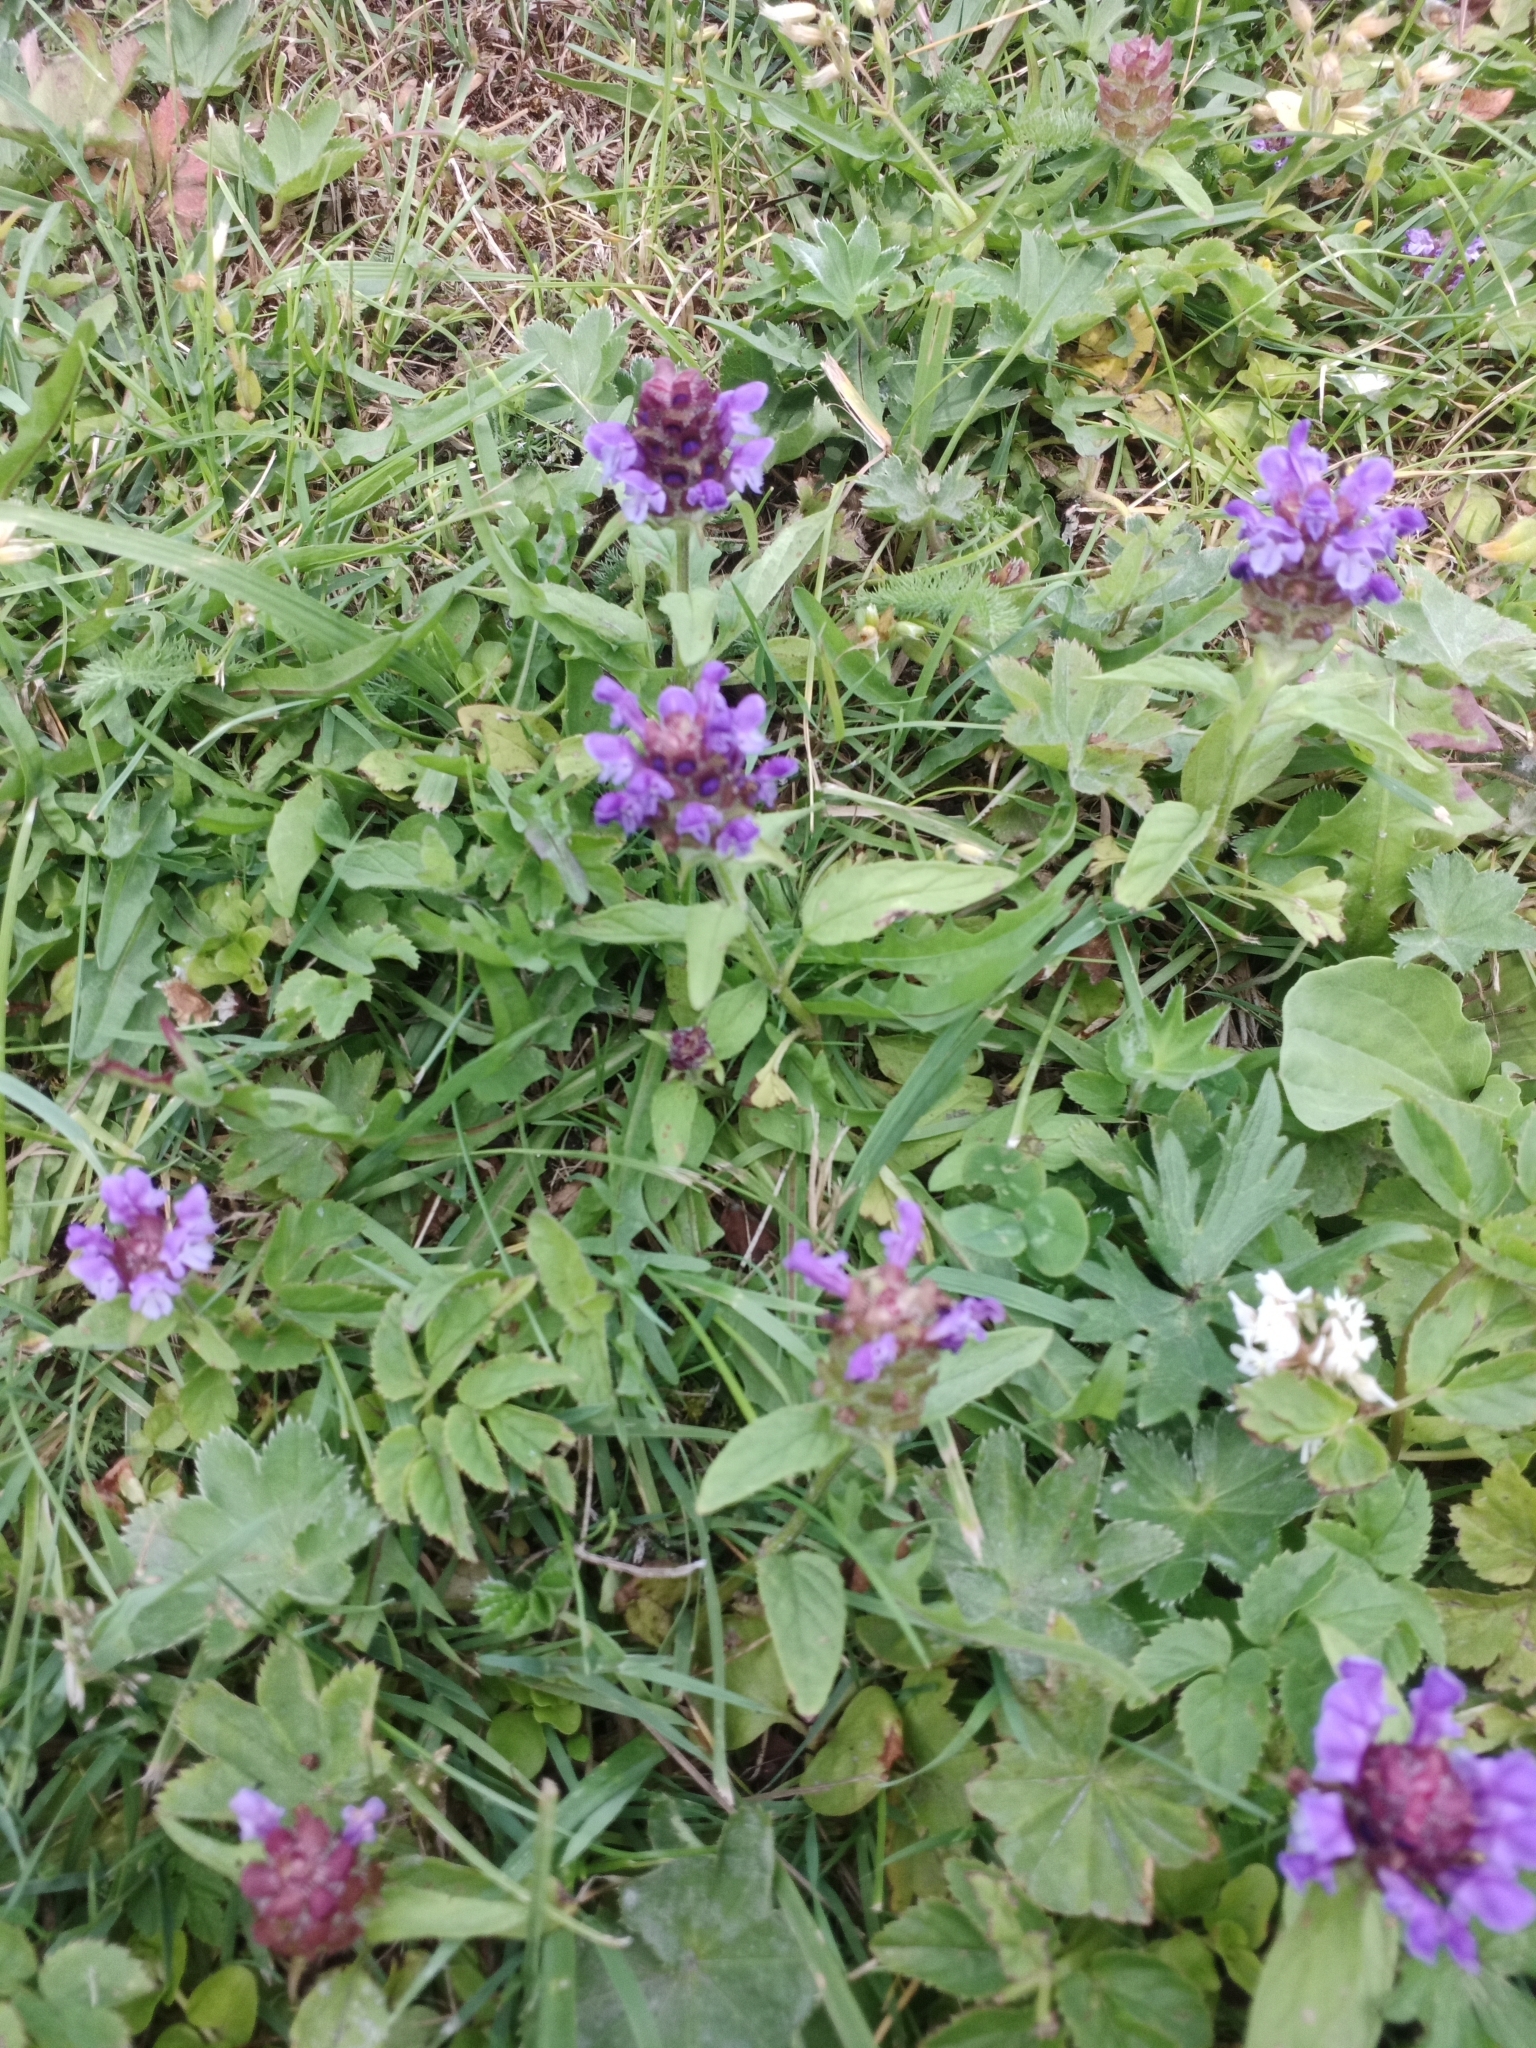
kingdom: Plantae
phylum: Tracheophyta
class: Magnoliopsida
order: Lamiales
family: Lamiaceae
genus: Prunella
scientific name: Prunella vulgaris
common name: Heal-all
